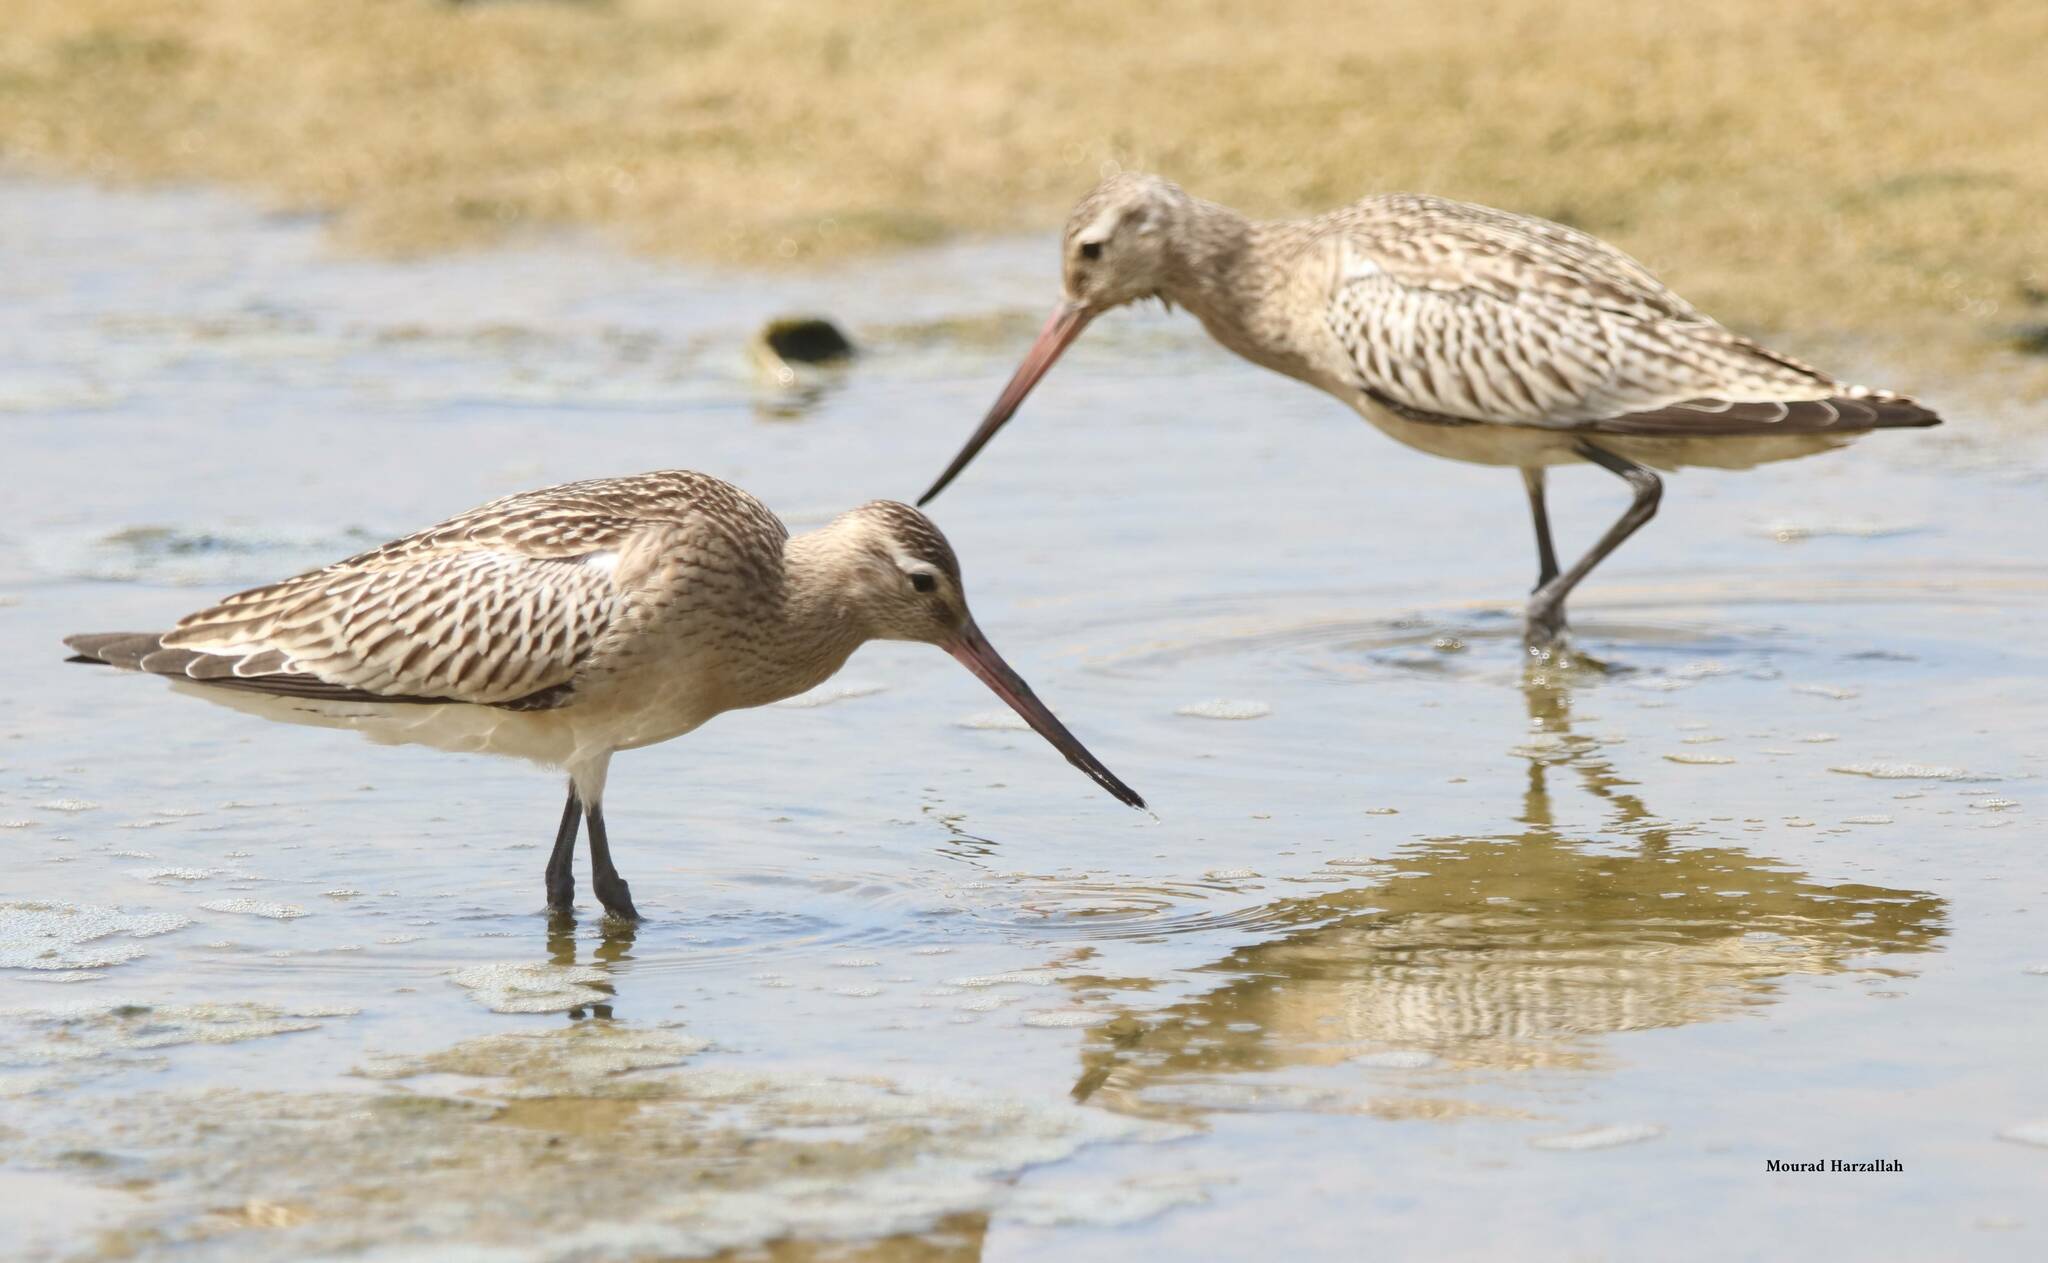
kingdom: Animalia
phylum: Chordata
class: Aves
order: Charadriiformes
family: Scolopacidae
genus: Limosa
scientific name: Limosa lapponica
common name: Bar-tailed godwit
